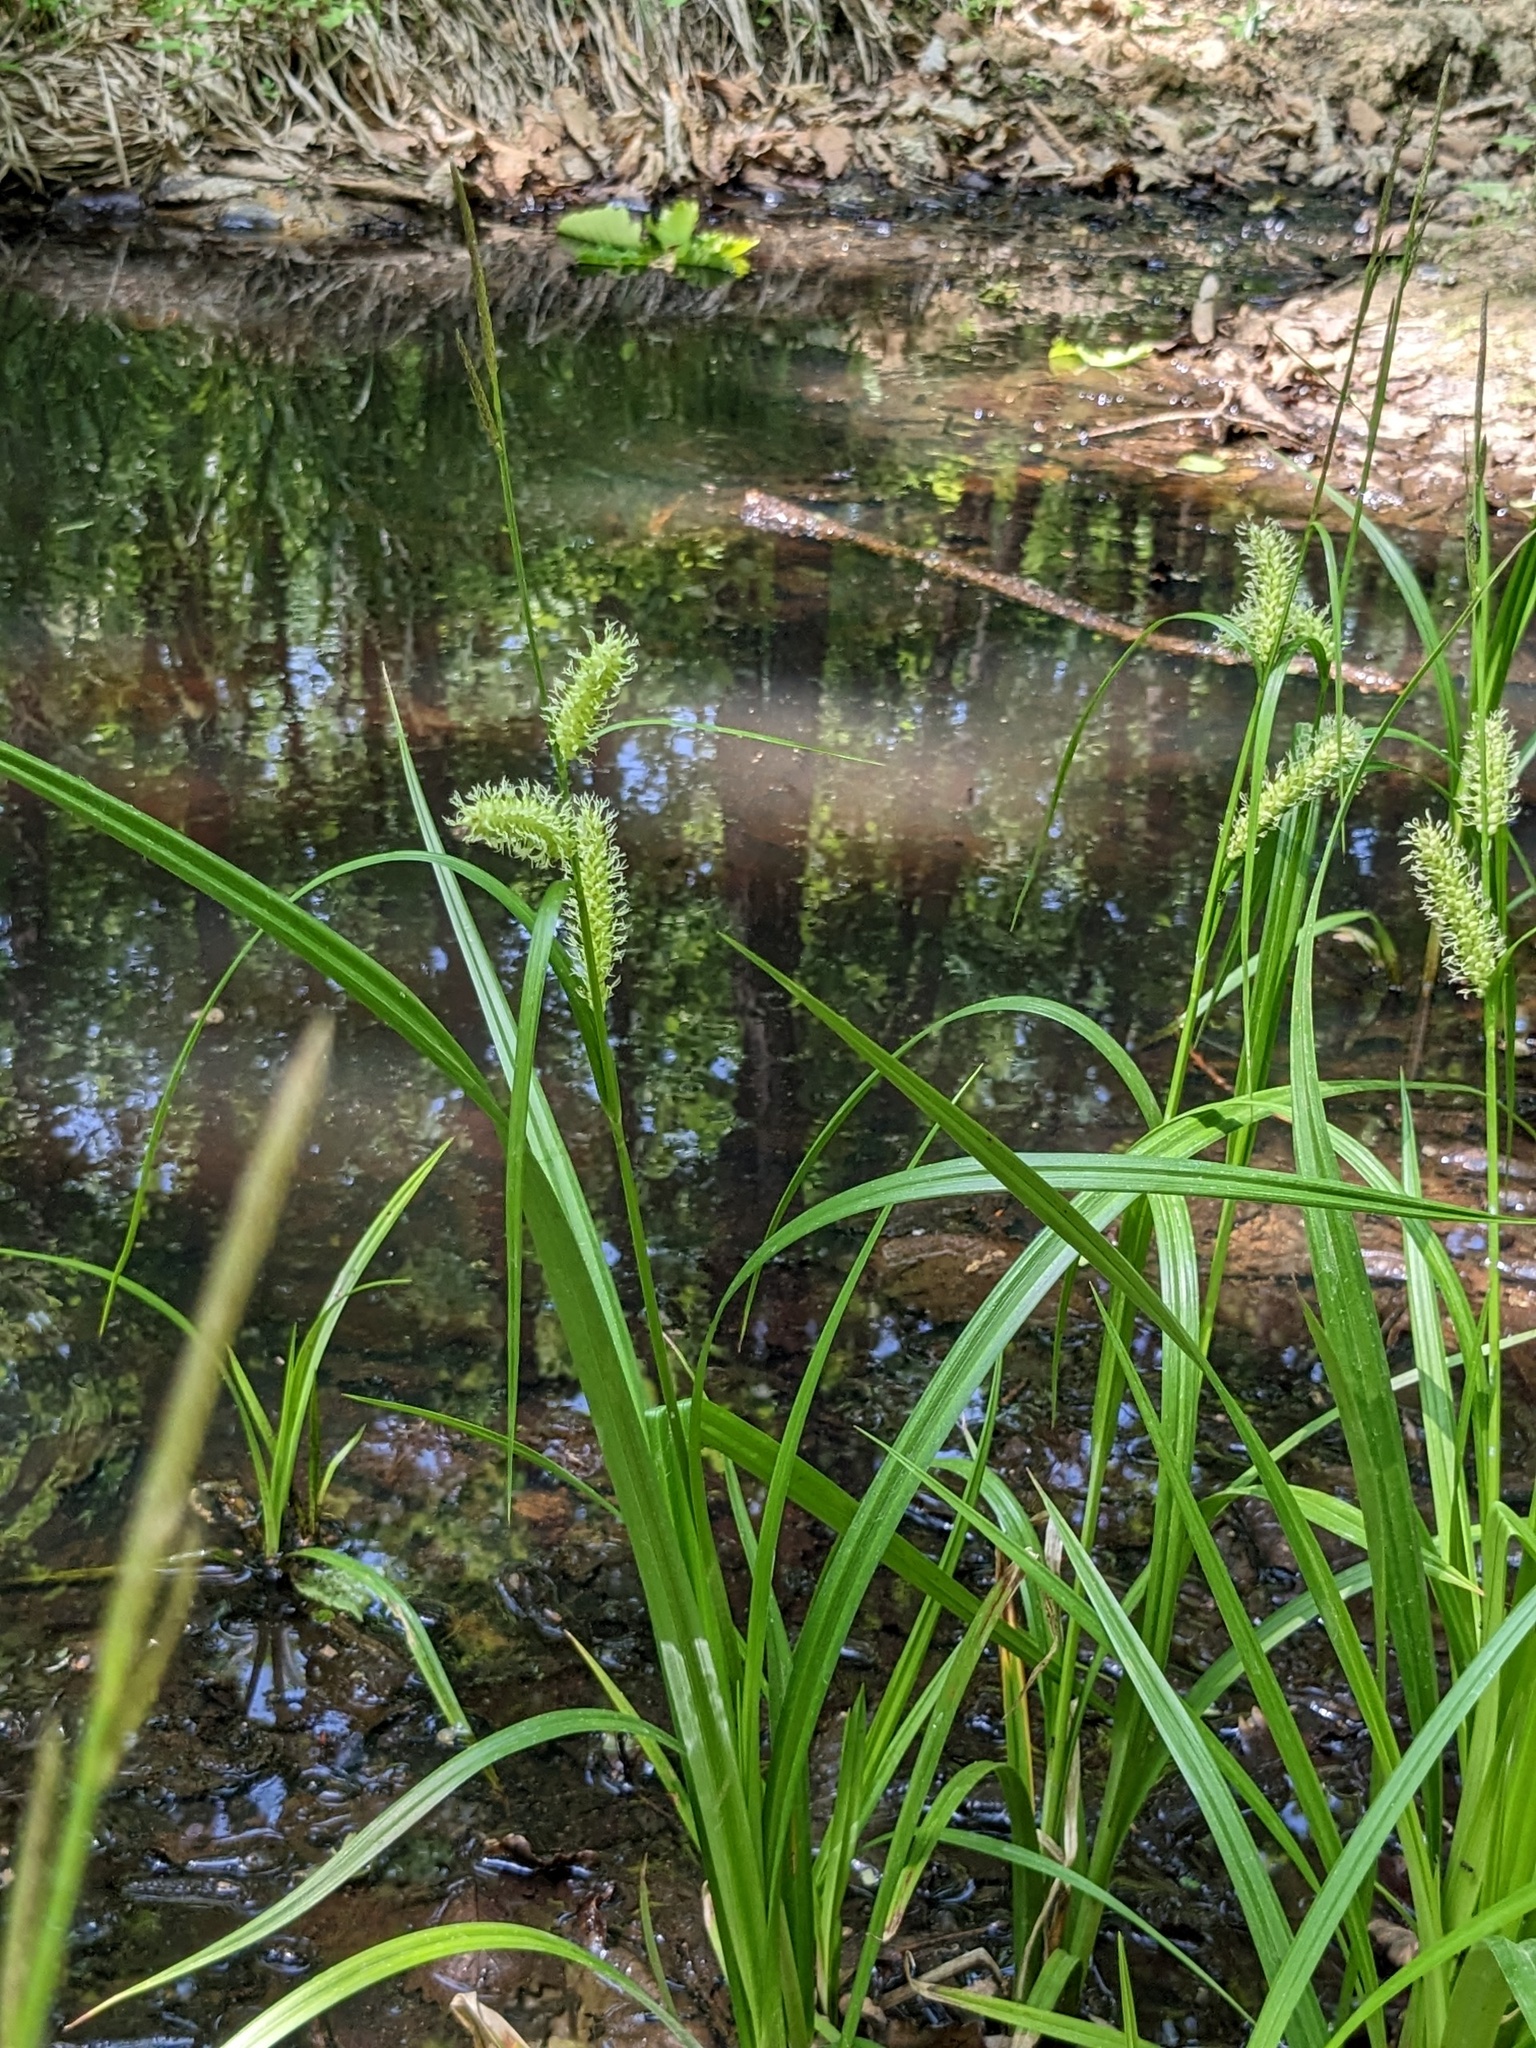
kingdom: Plantae
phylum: Tracheophyta
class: Liliopsida
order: Poales
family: Cyperaceae
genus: Carex
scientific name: Carex utriculata
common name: Beaked sedge
